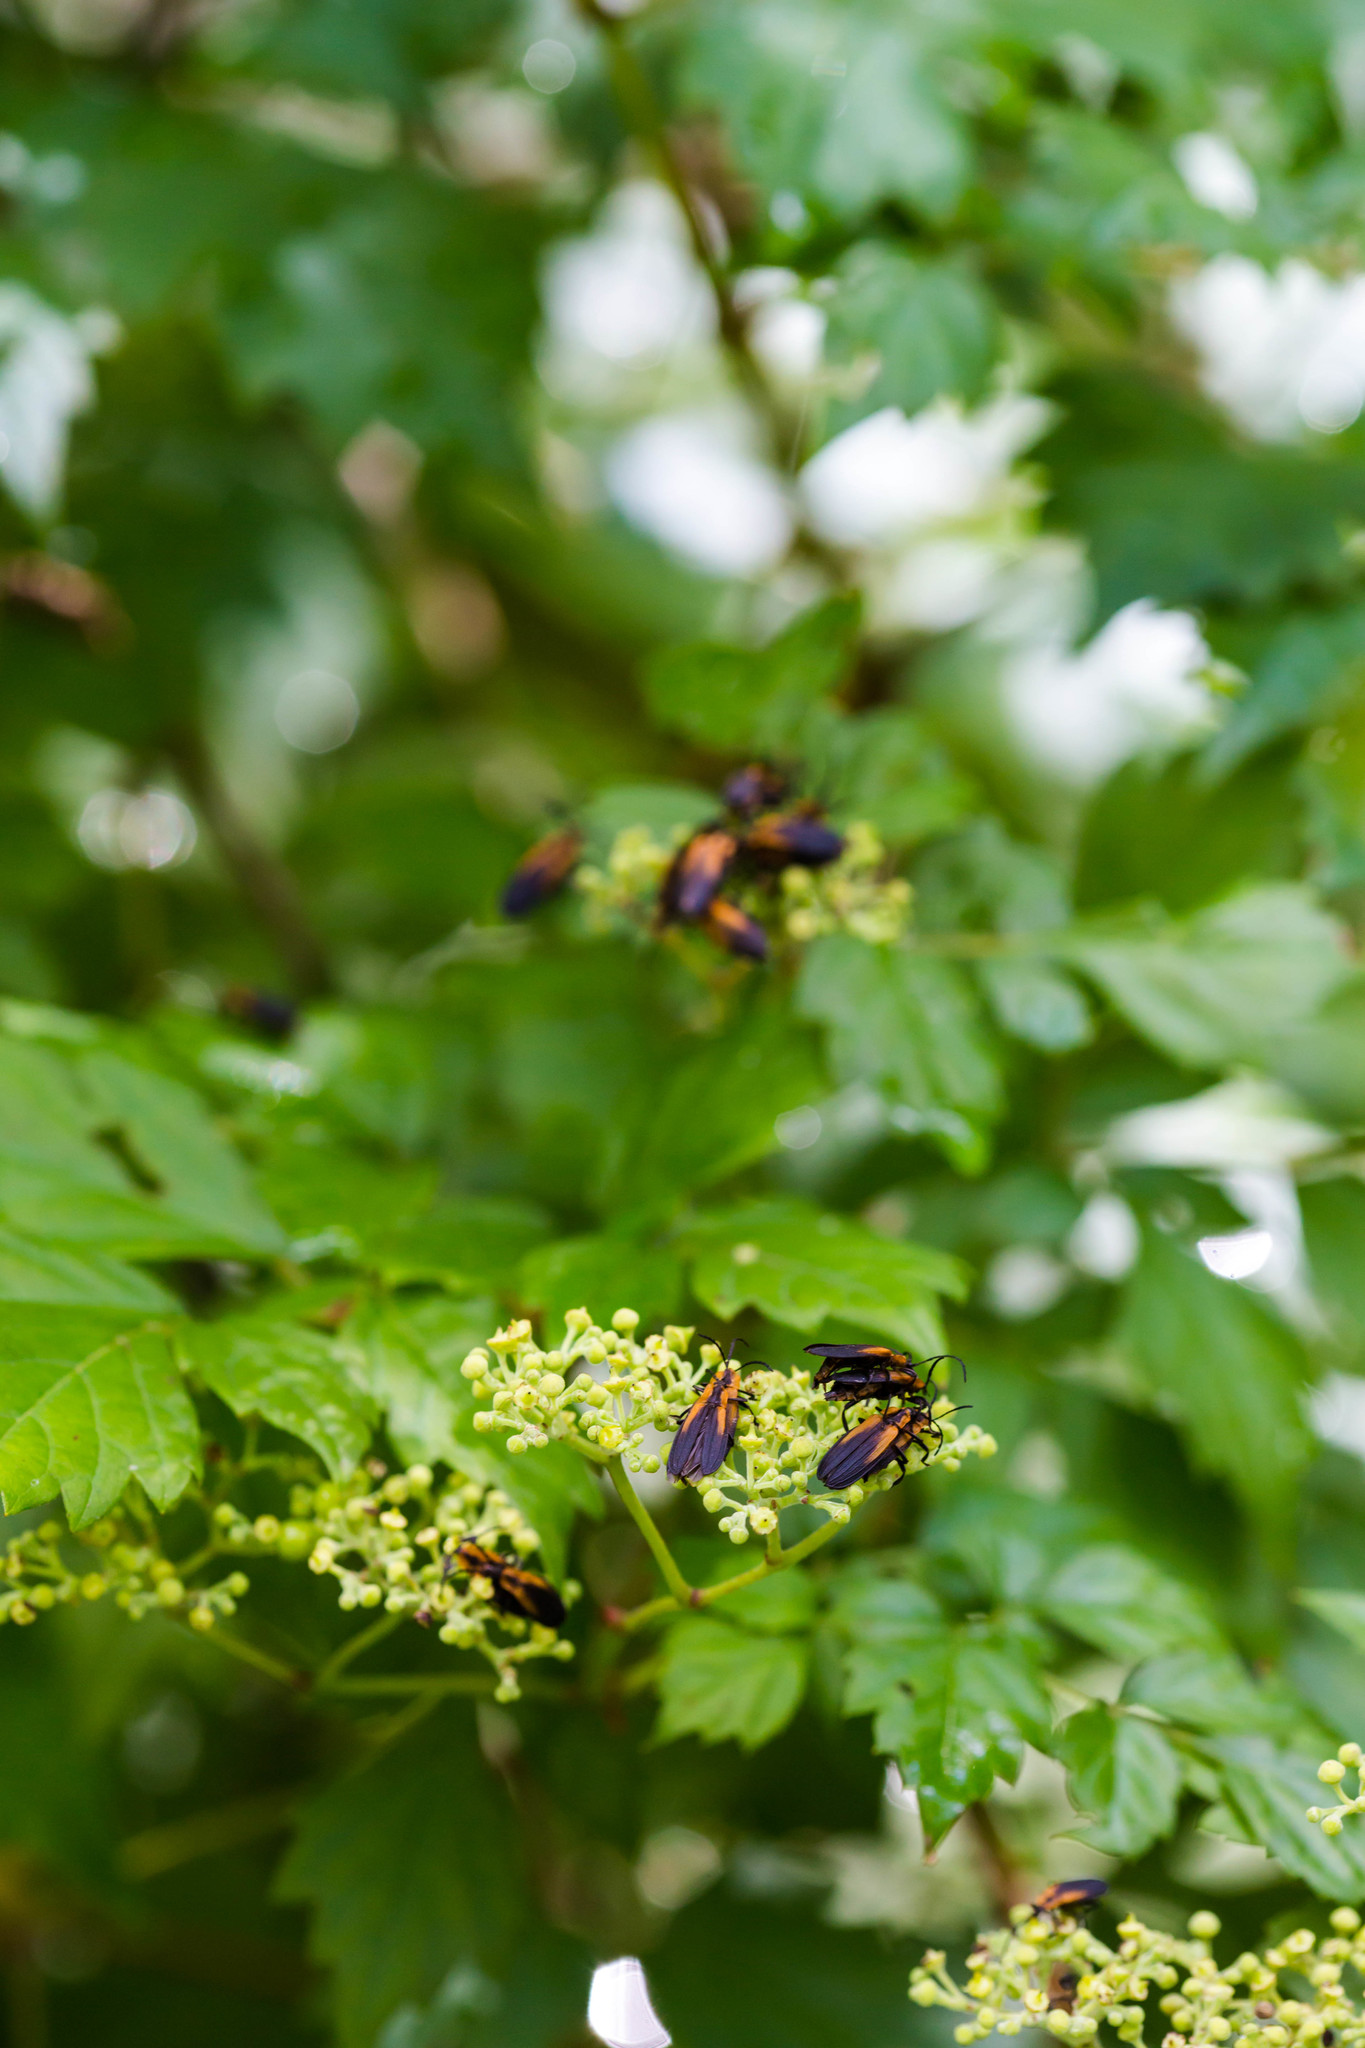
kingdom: Animalia
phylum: Arthropoda
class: Insecta
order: Coleoptera
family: Lycidae
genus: Lyconotus
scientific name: Lyconotus lateralis
